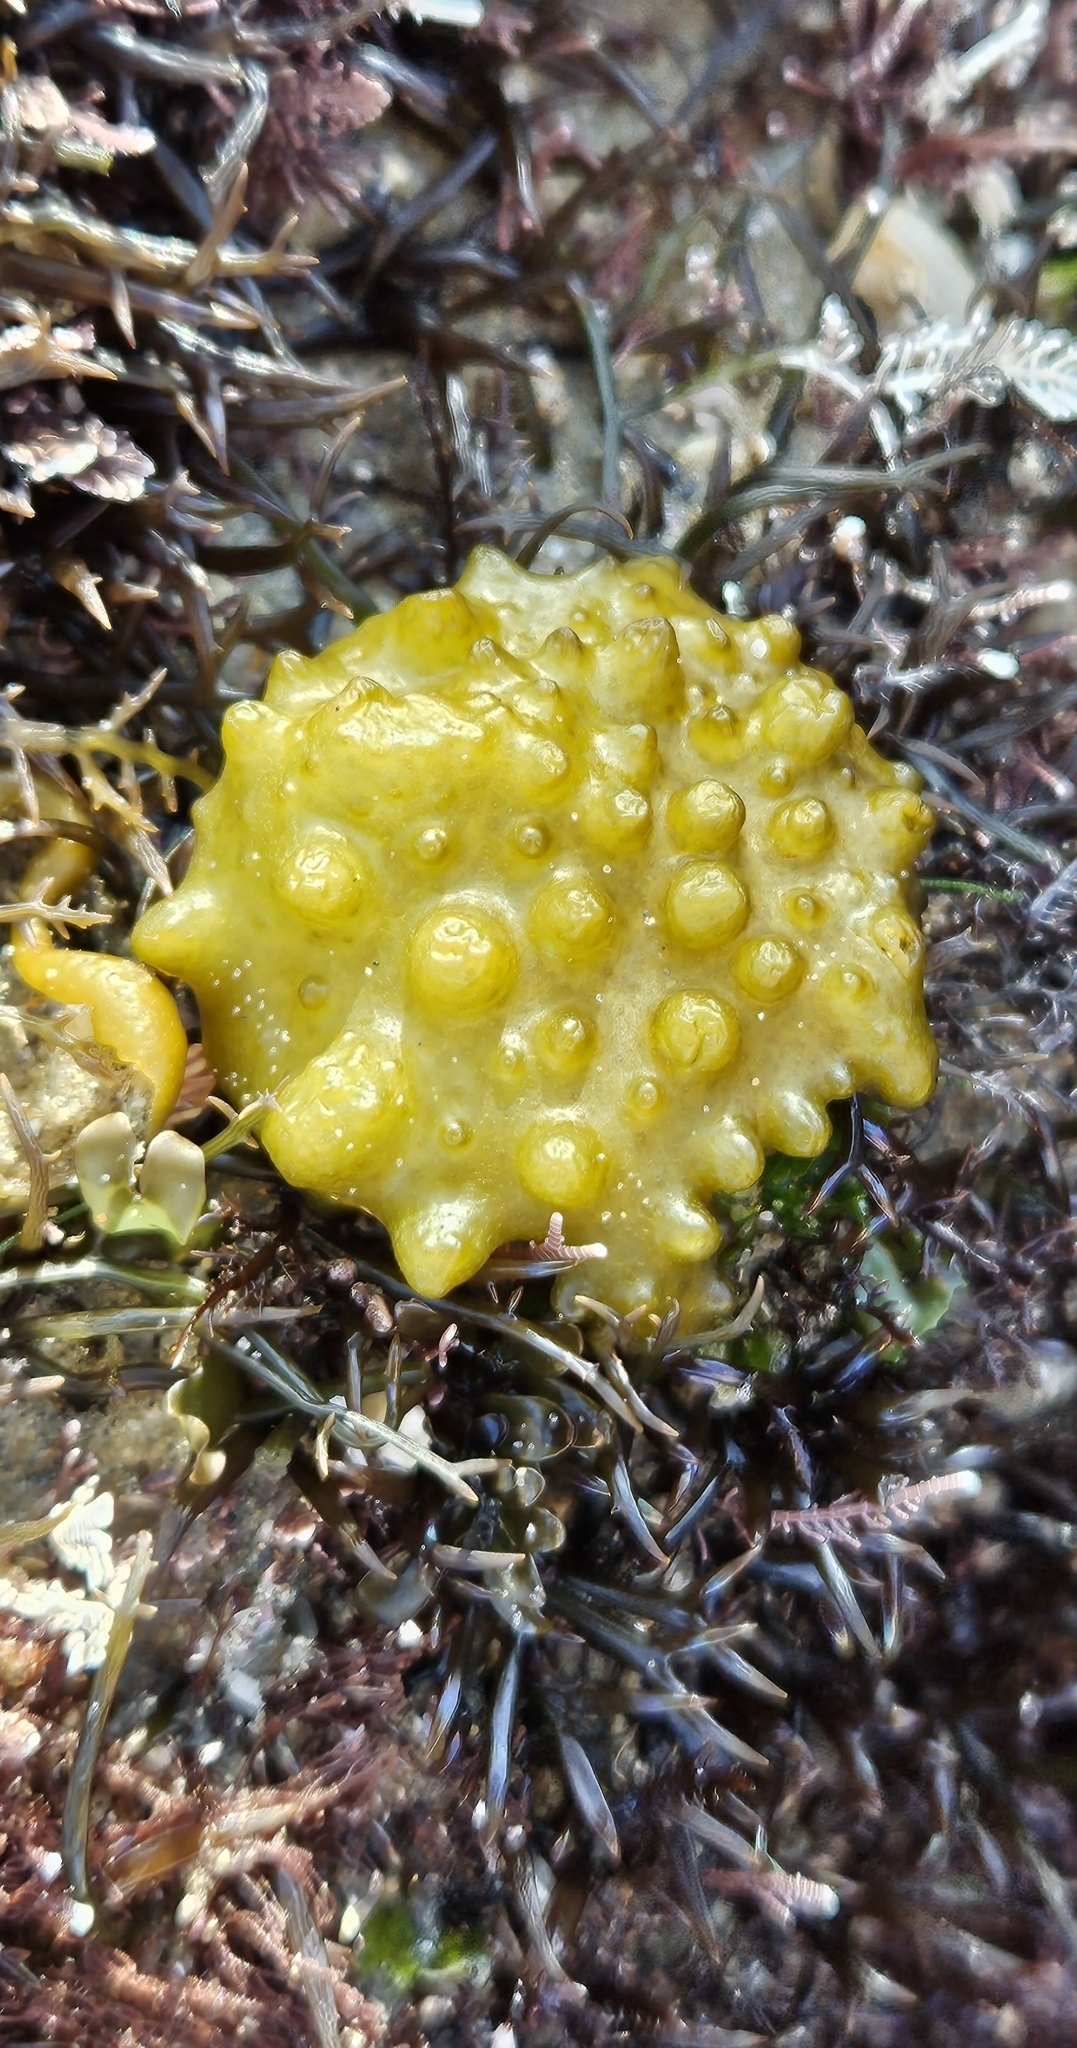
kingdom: Chromista
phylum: Ochrophyta
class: Phaeophyceae
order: Scytosiphonales
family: Scytosiphonaceae
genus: Colpomenia
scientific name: Colpomenia
